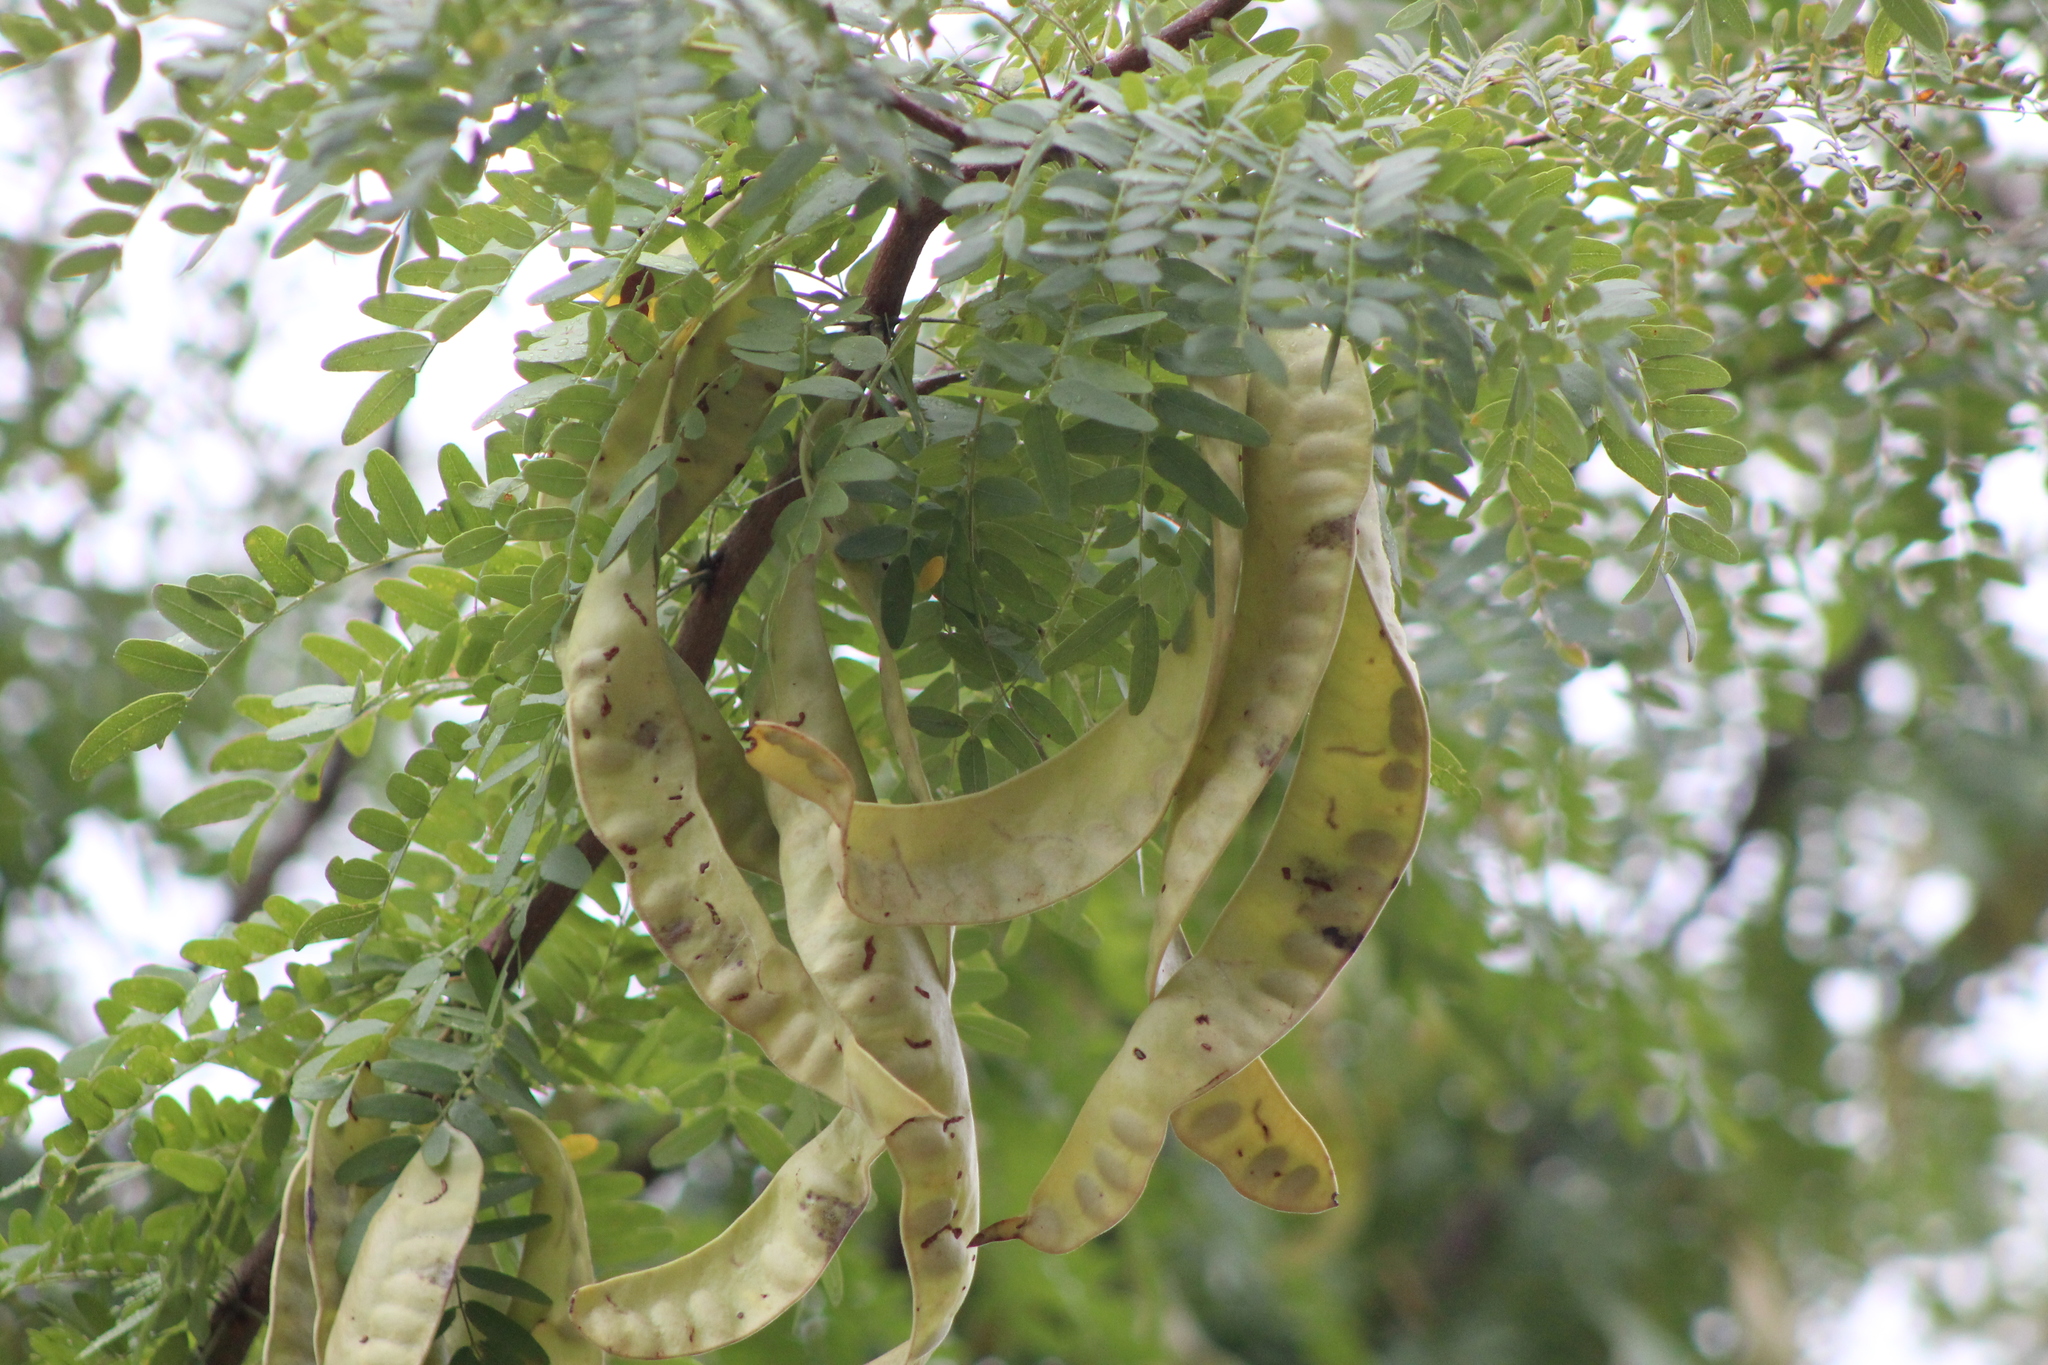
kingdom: Plantae
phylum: Tracheophyta
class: Magnoliopsida
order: Fabales
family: Fabaceae
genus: Gleditsia
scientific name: Gleditsia triacanthos
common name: Common honeylocust
